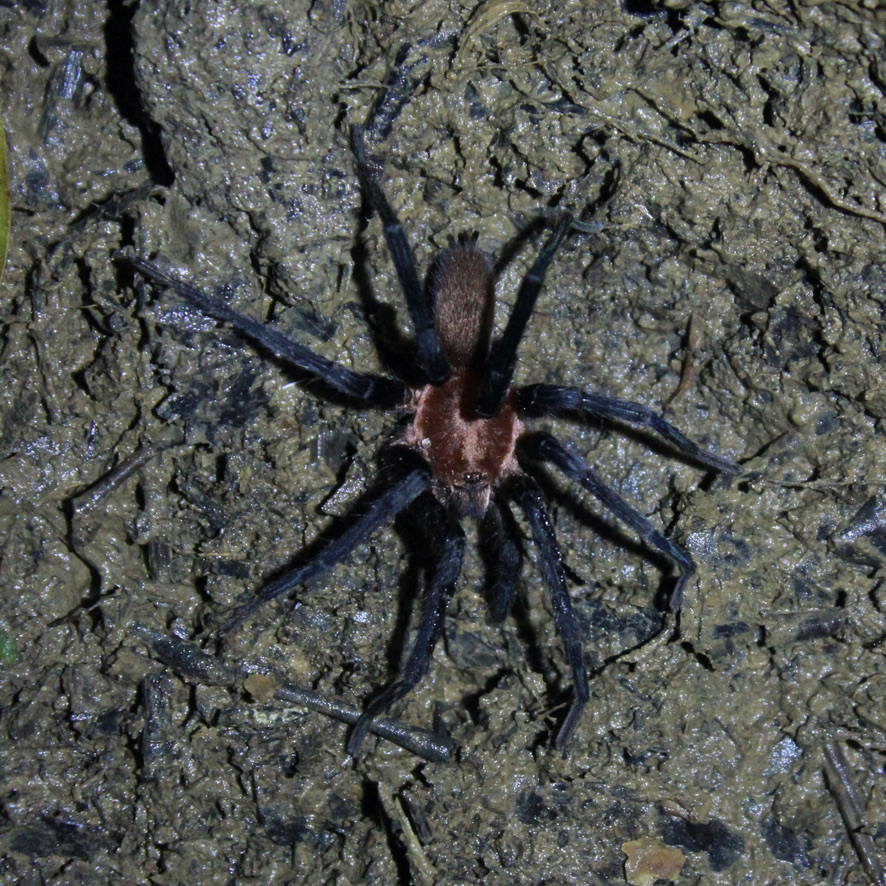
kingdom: Animalia
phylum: Arthropoda
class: Arachnida
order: Araneae
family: Theraphosidae
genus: Holothele
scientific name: Holothele longipes
